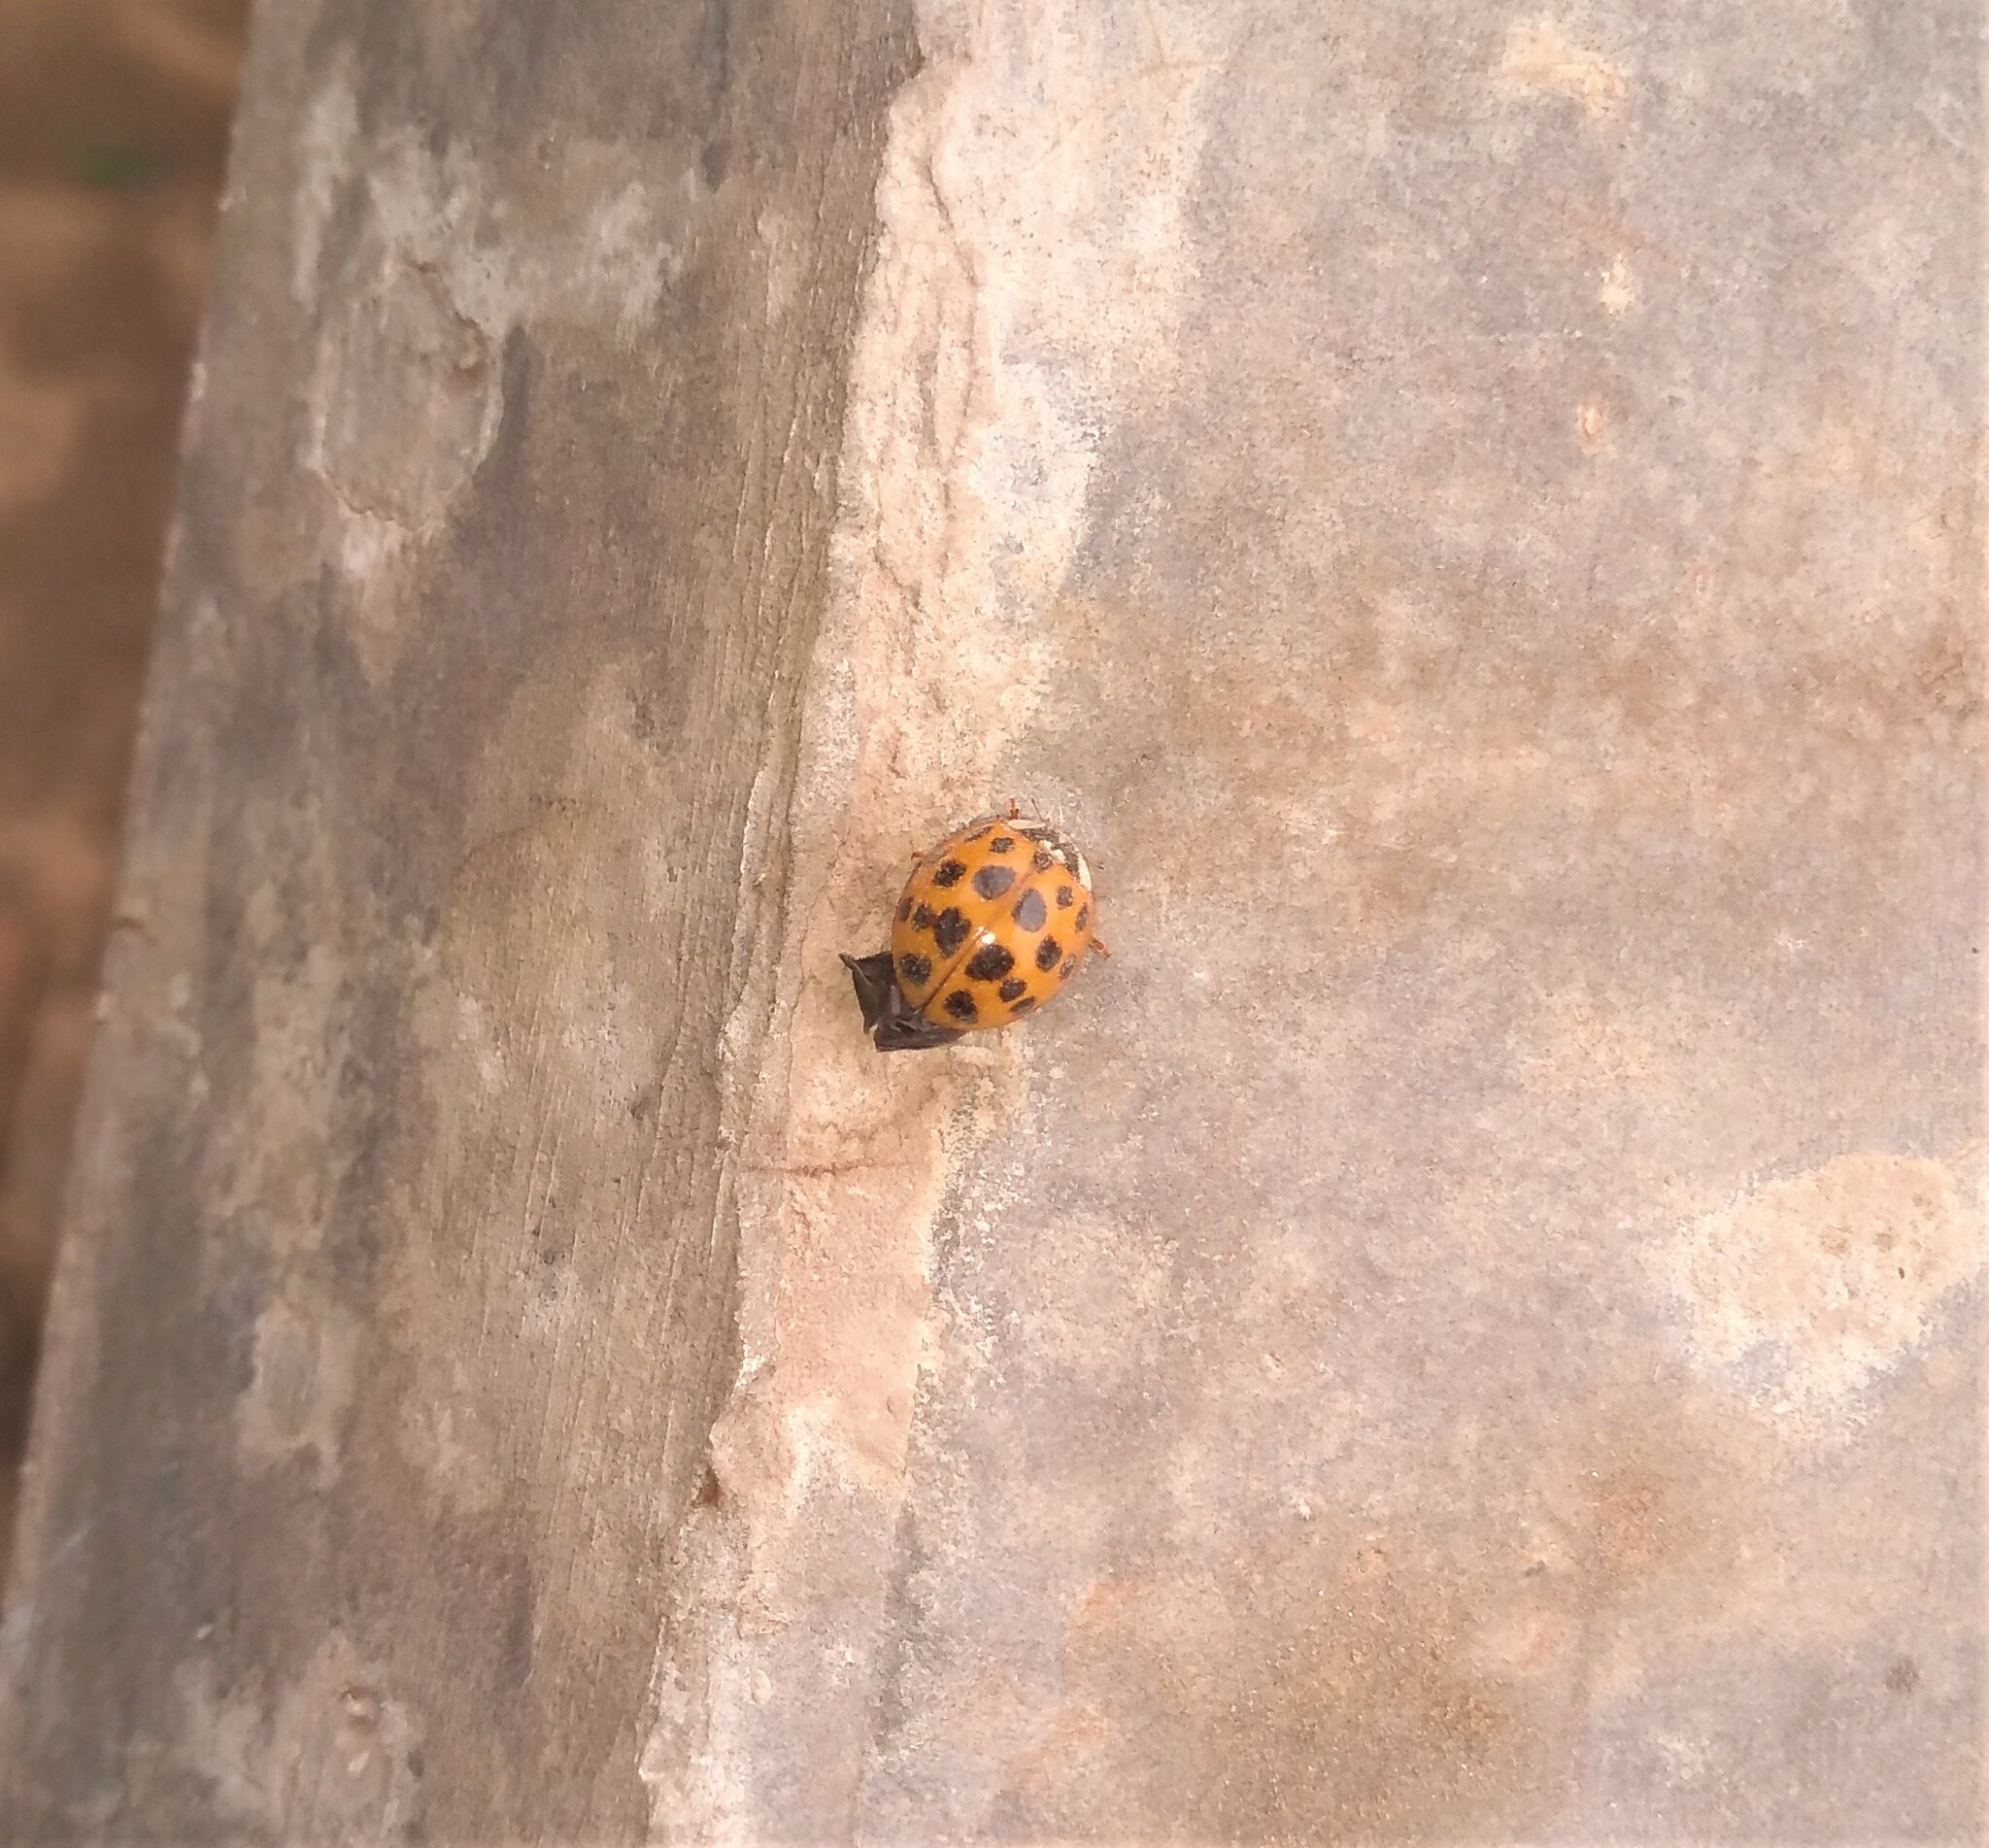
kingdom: Animalia
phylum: Arthropoda
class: Insecta
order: Coleoptera
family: Coccinellidae
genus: Harmonia
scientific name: Harmonia axyridis
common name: Harlequin ladybird
